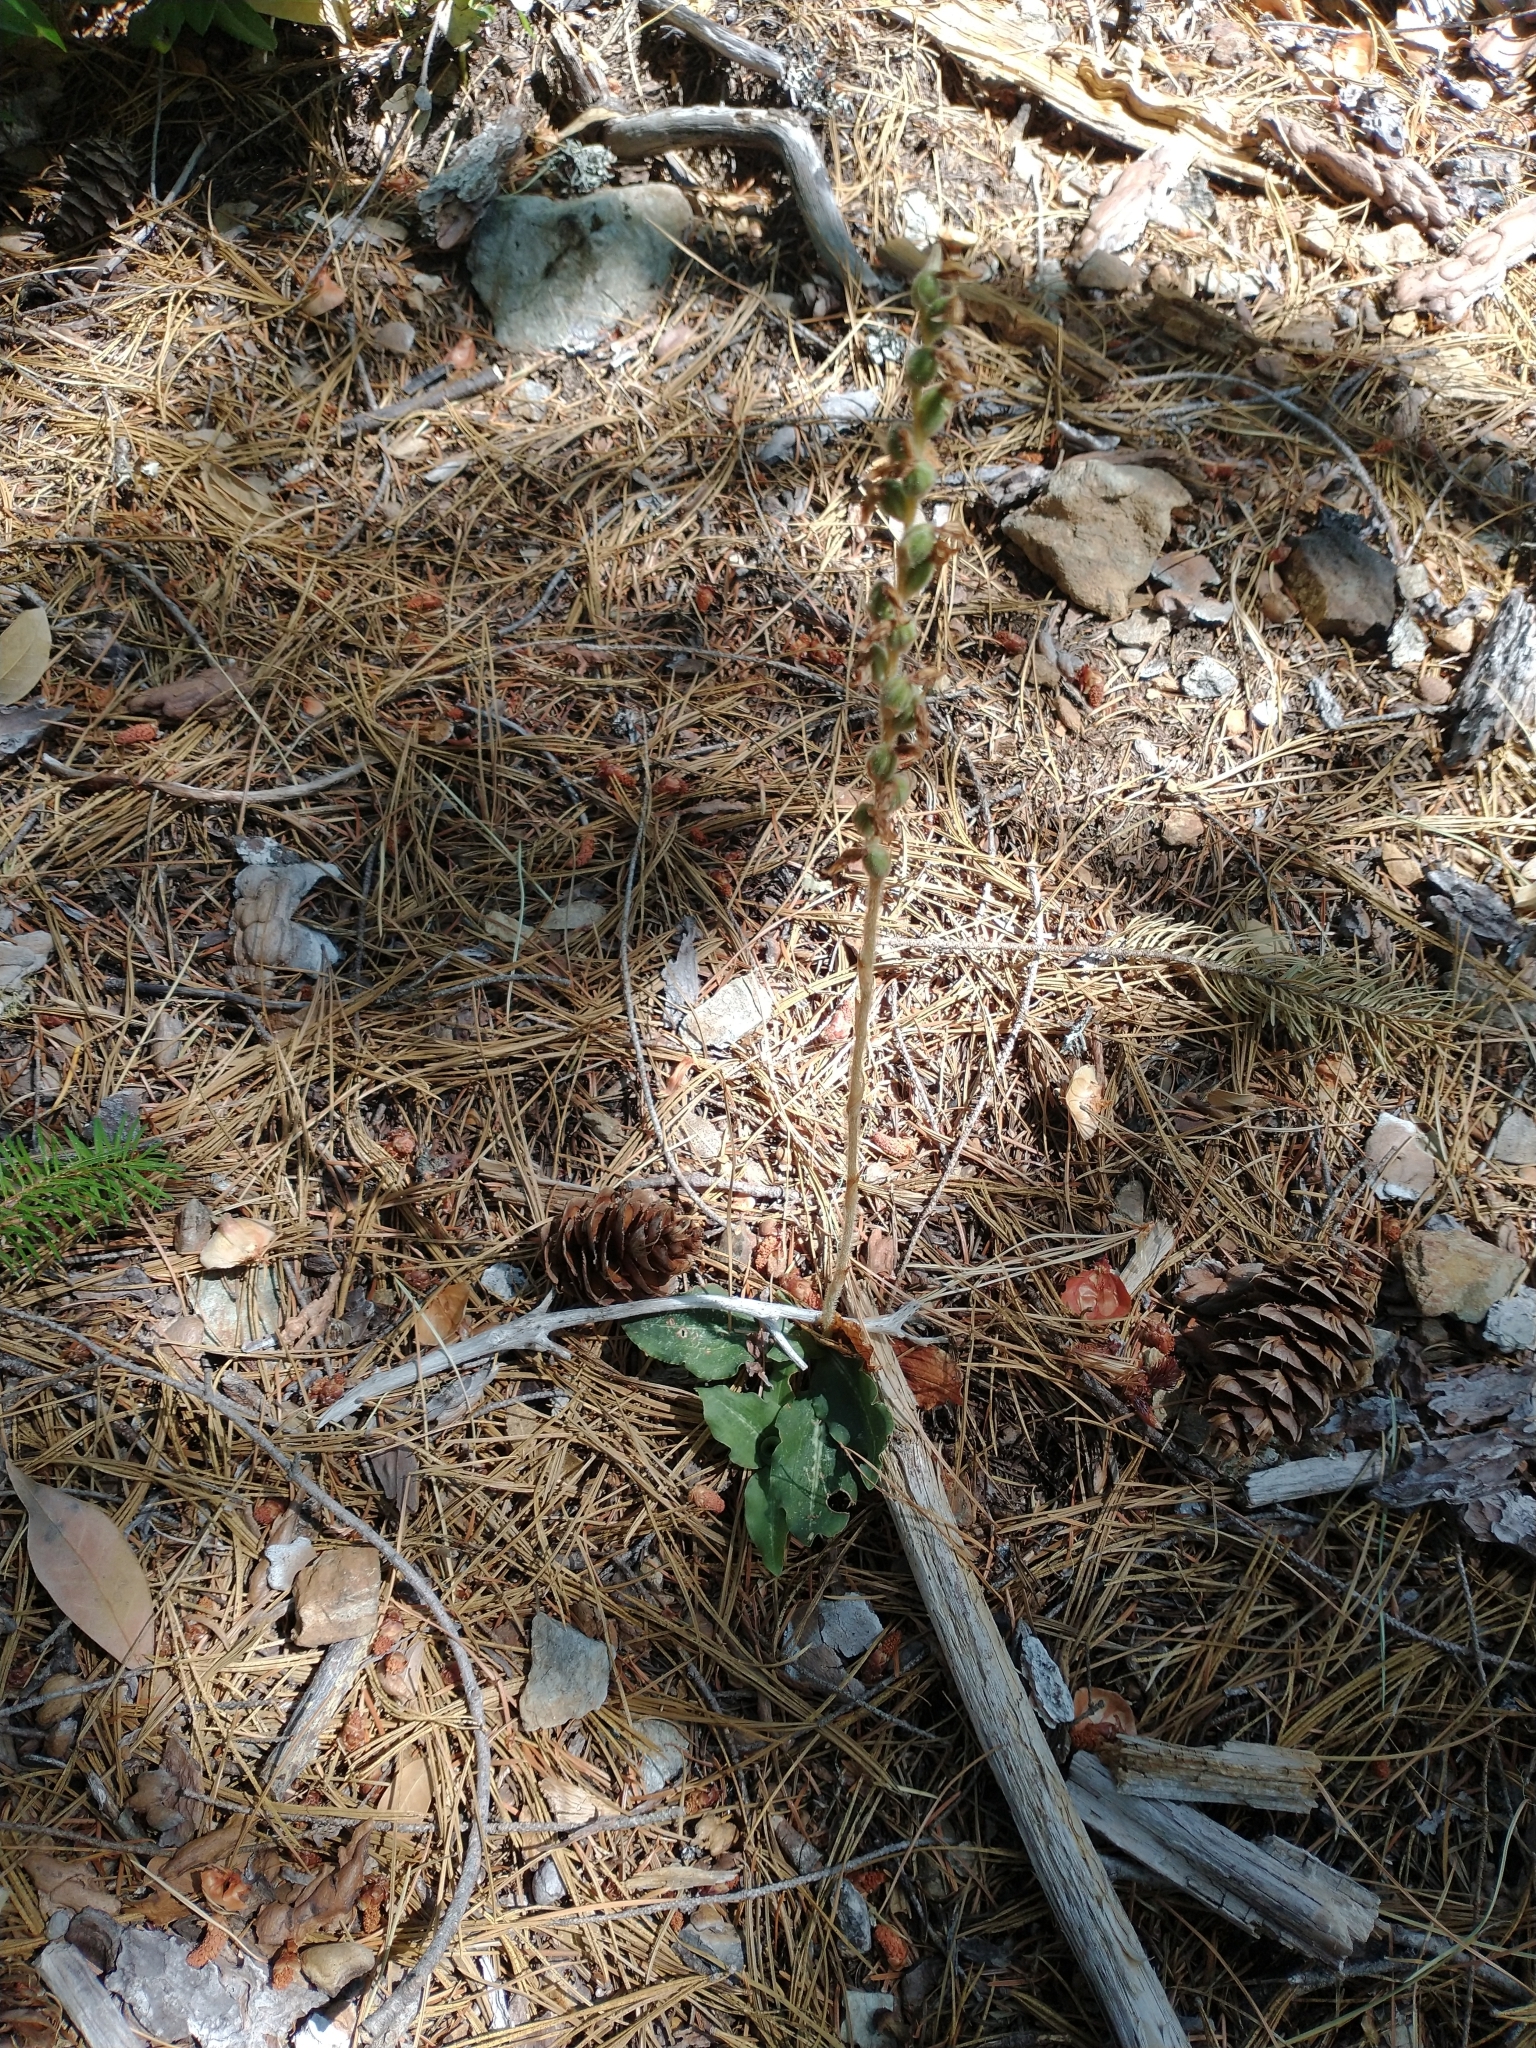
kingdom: Plantae
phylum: Tracheophyta
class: Pinopsida
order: Pinales
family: Pinaceae
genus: Pseudotsuga
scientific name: Pseudotsuga menziesii
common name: Douglas fir
